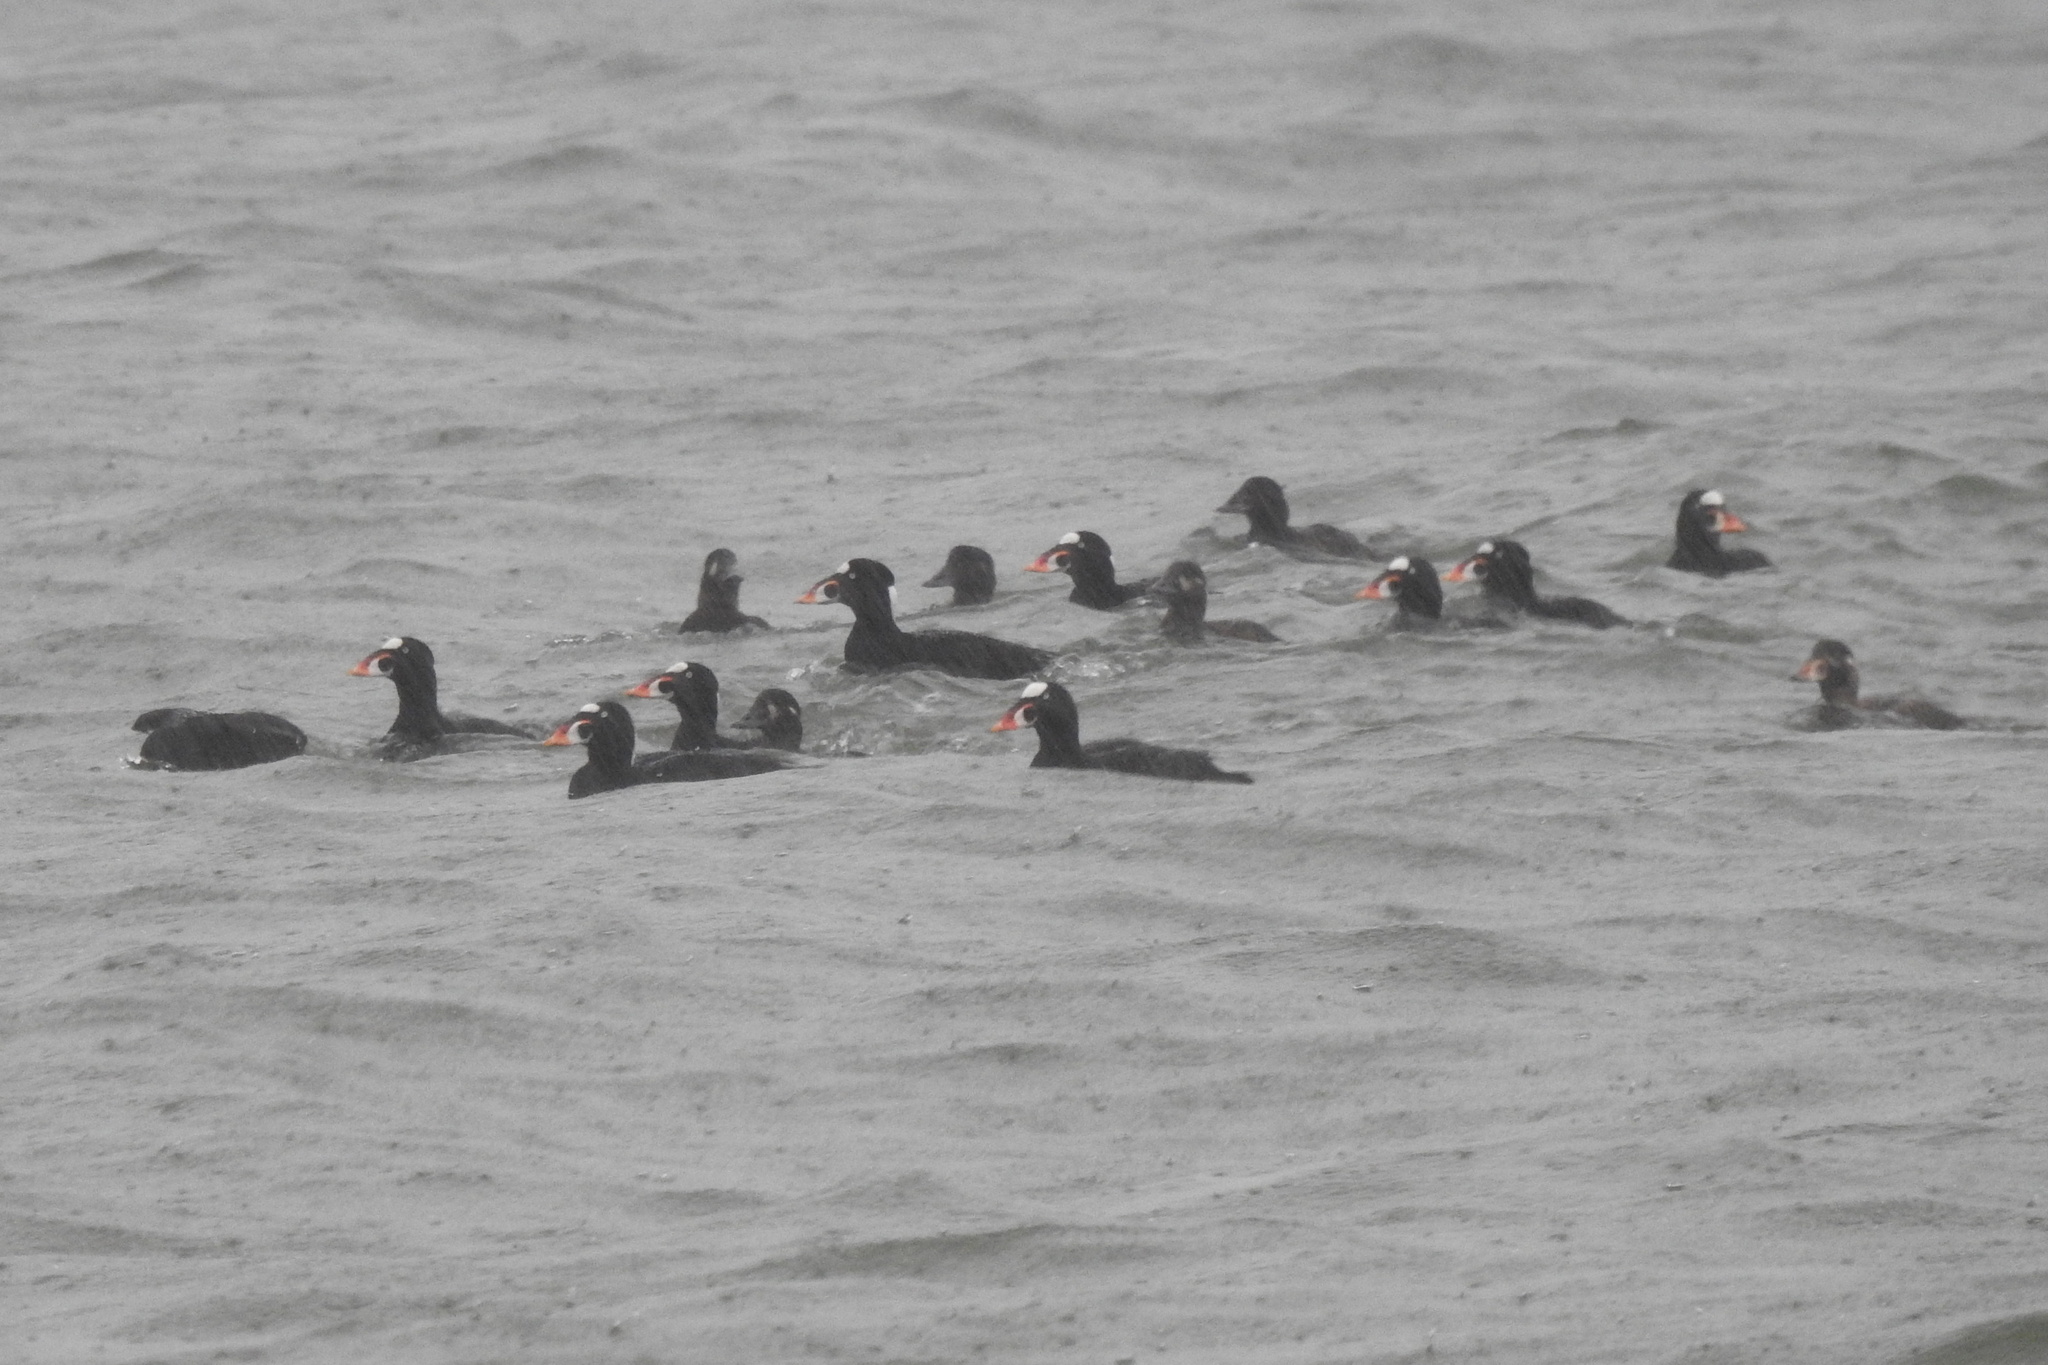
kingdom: Animalia
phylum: Chordata
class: Aves
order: Anseriformes
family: Anatidae
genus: Melanitta
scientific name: Melanitta perspicillata
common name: Surf scoter
